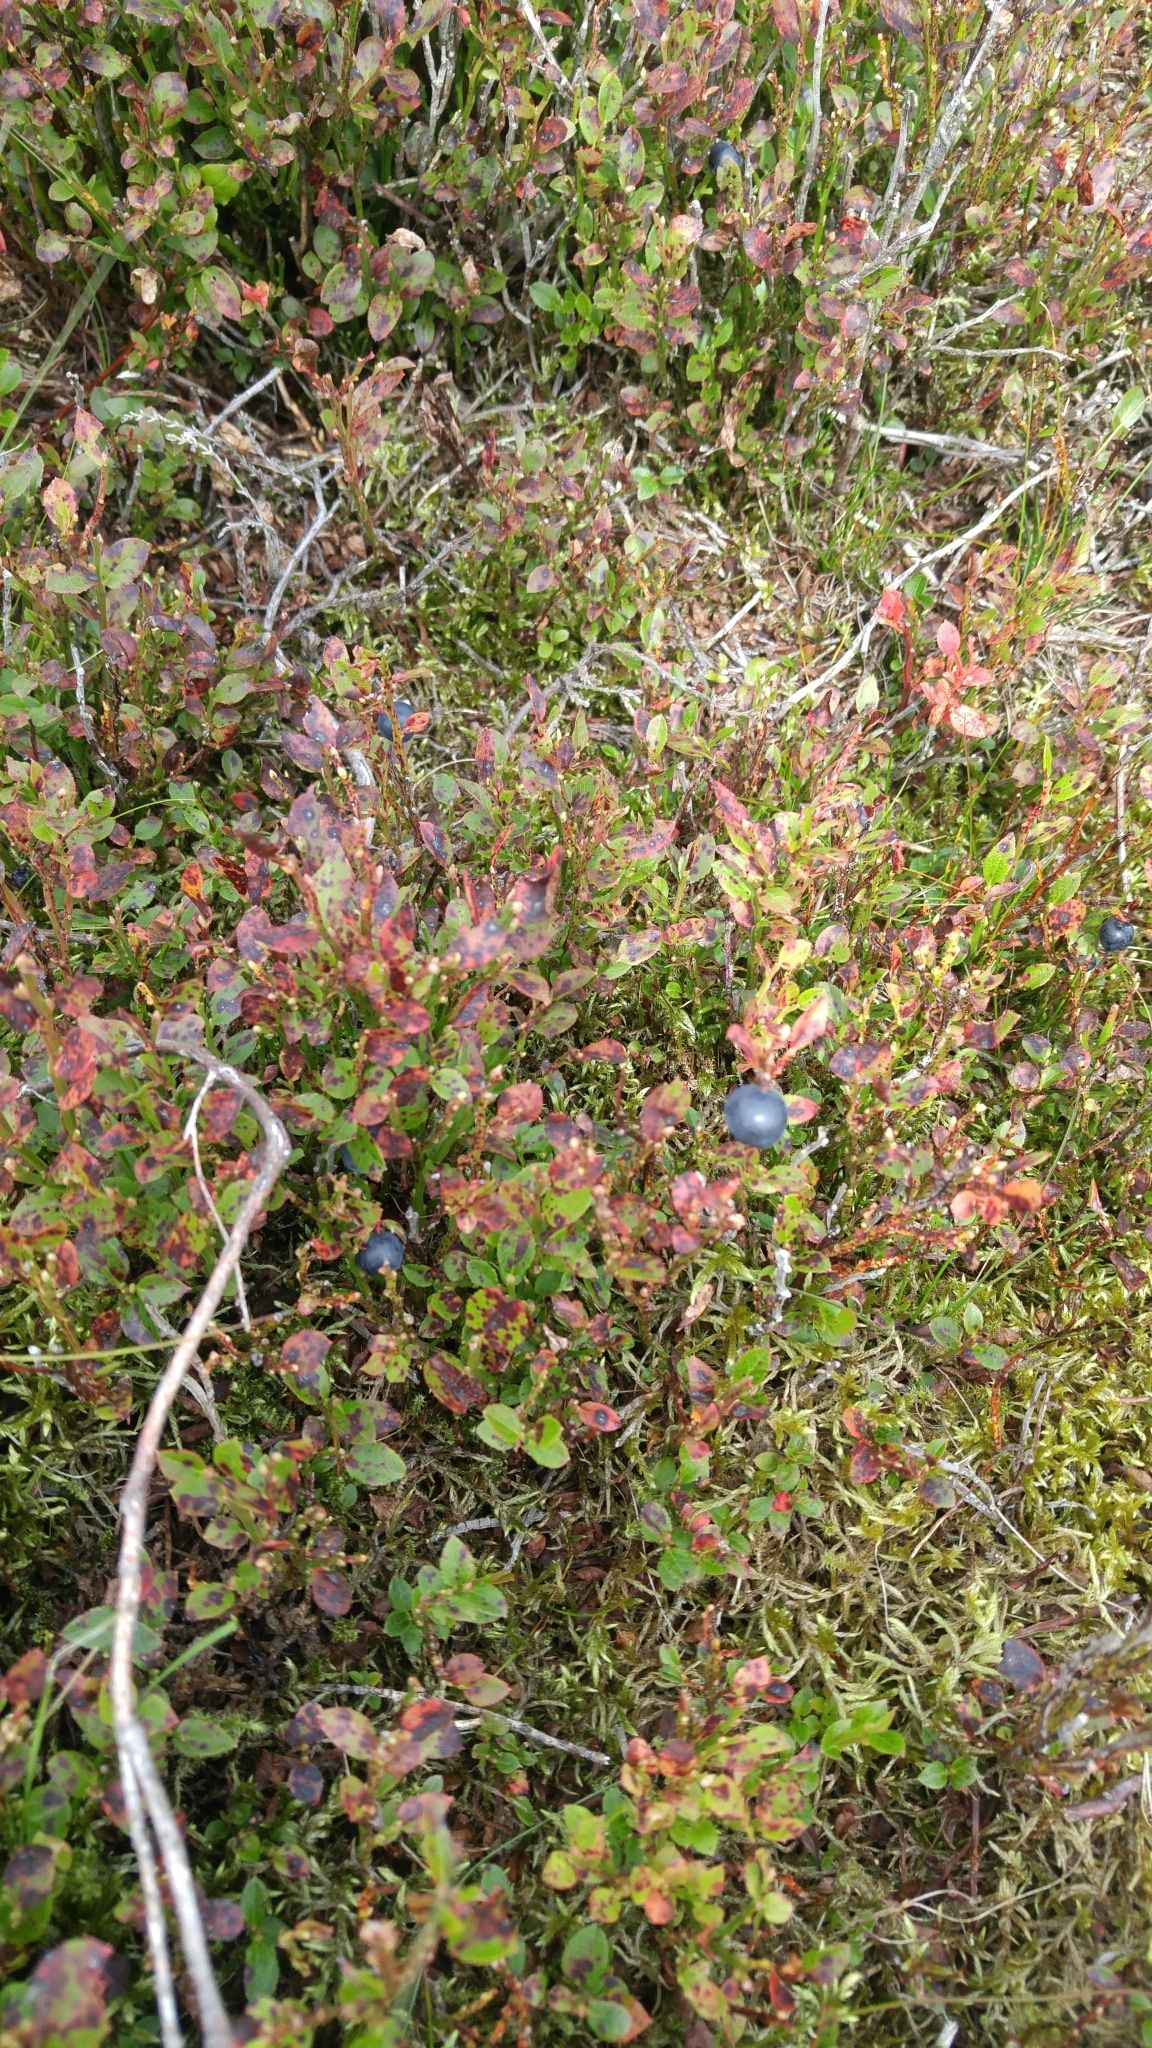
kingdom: Plantae
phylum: Tracheophyta
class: Magnoliopsida
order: Ericales
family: Ericaceae
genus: Vaccinium
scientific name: Vaccinium myrtillus
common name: Bilberry
